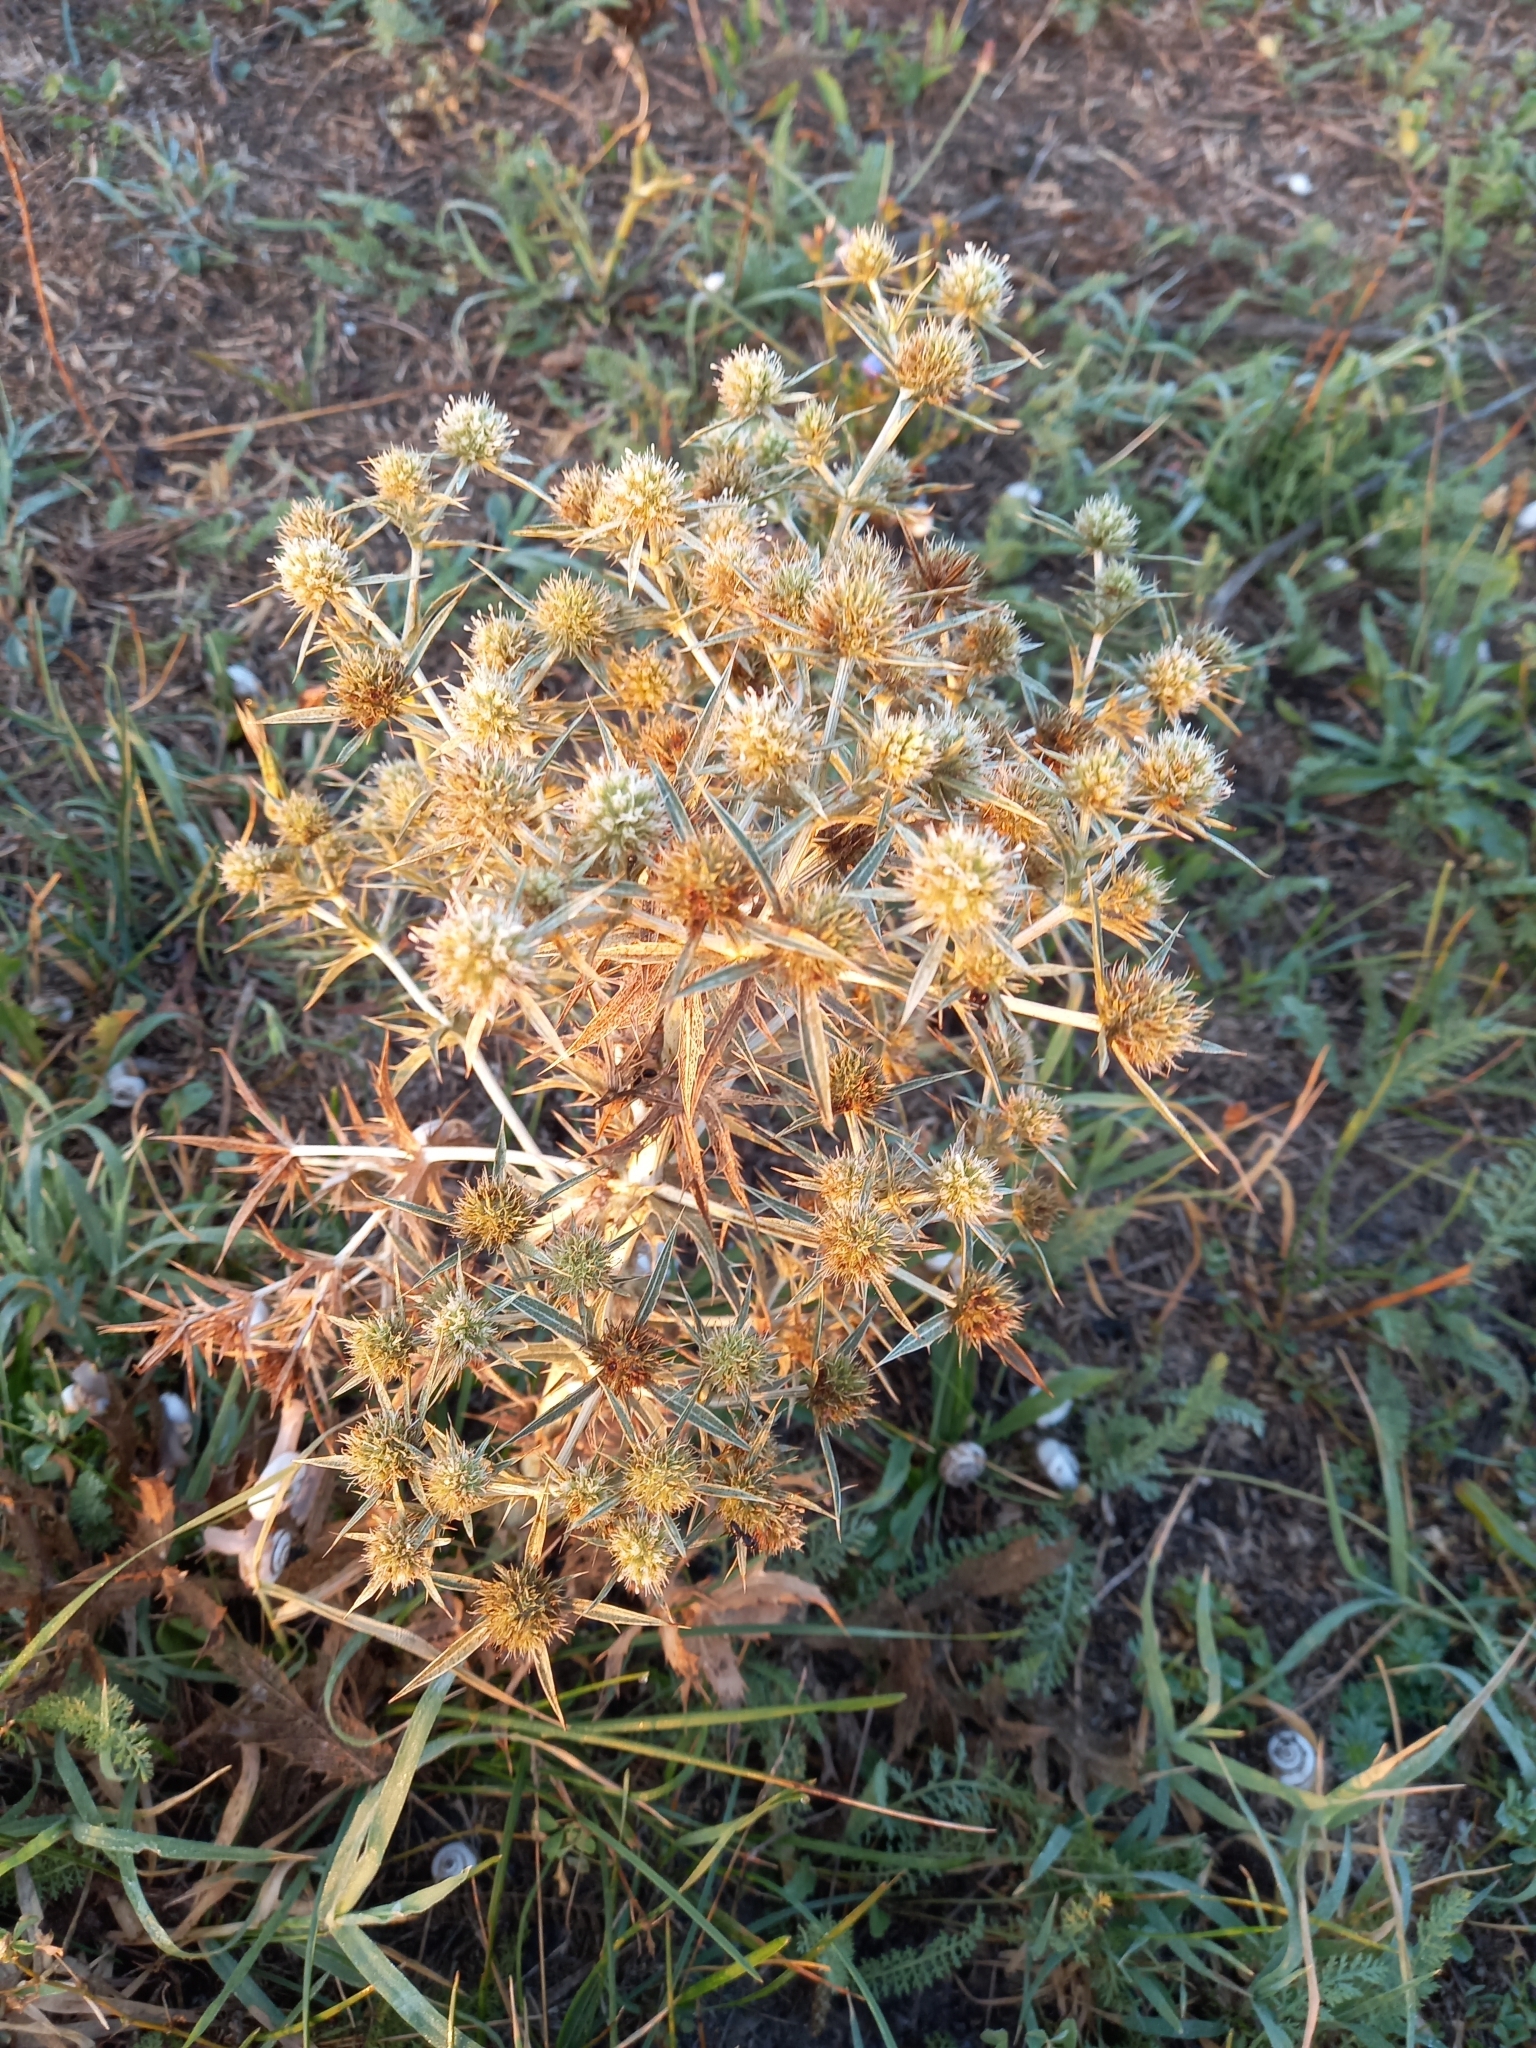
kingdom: Plantae
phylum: Tracheophyta
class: Magnoliopsida
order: Apiales
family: Apiaceae
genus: Eryngium
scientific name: Eryngium campestre
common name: Field eryngo
